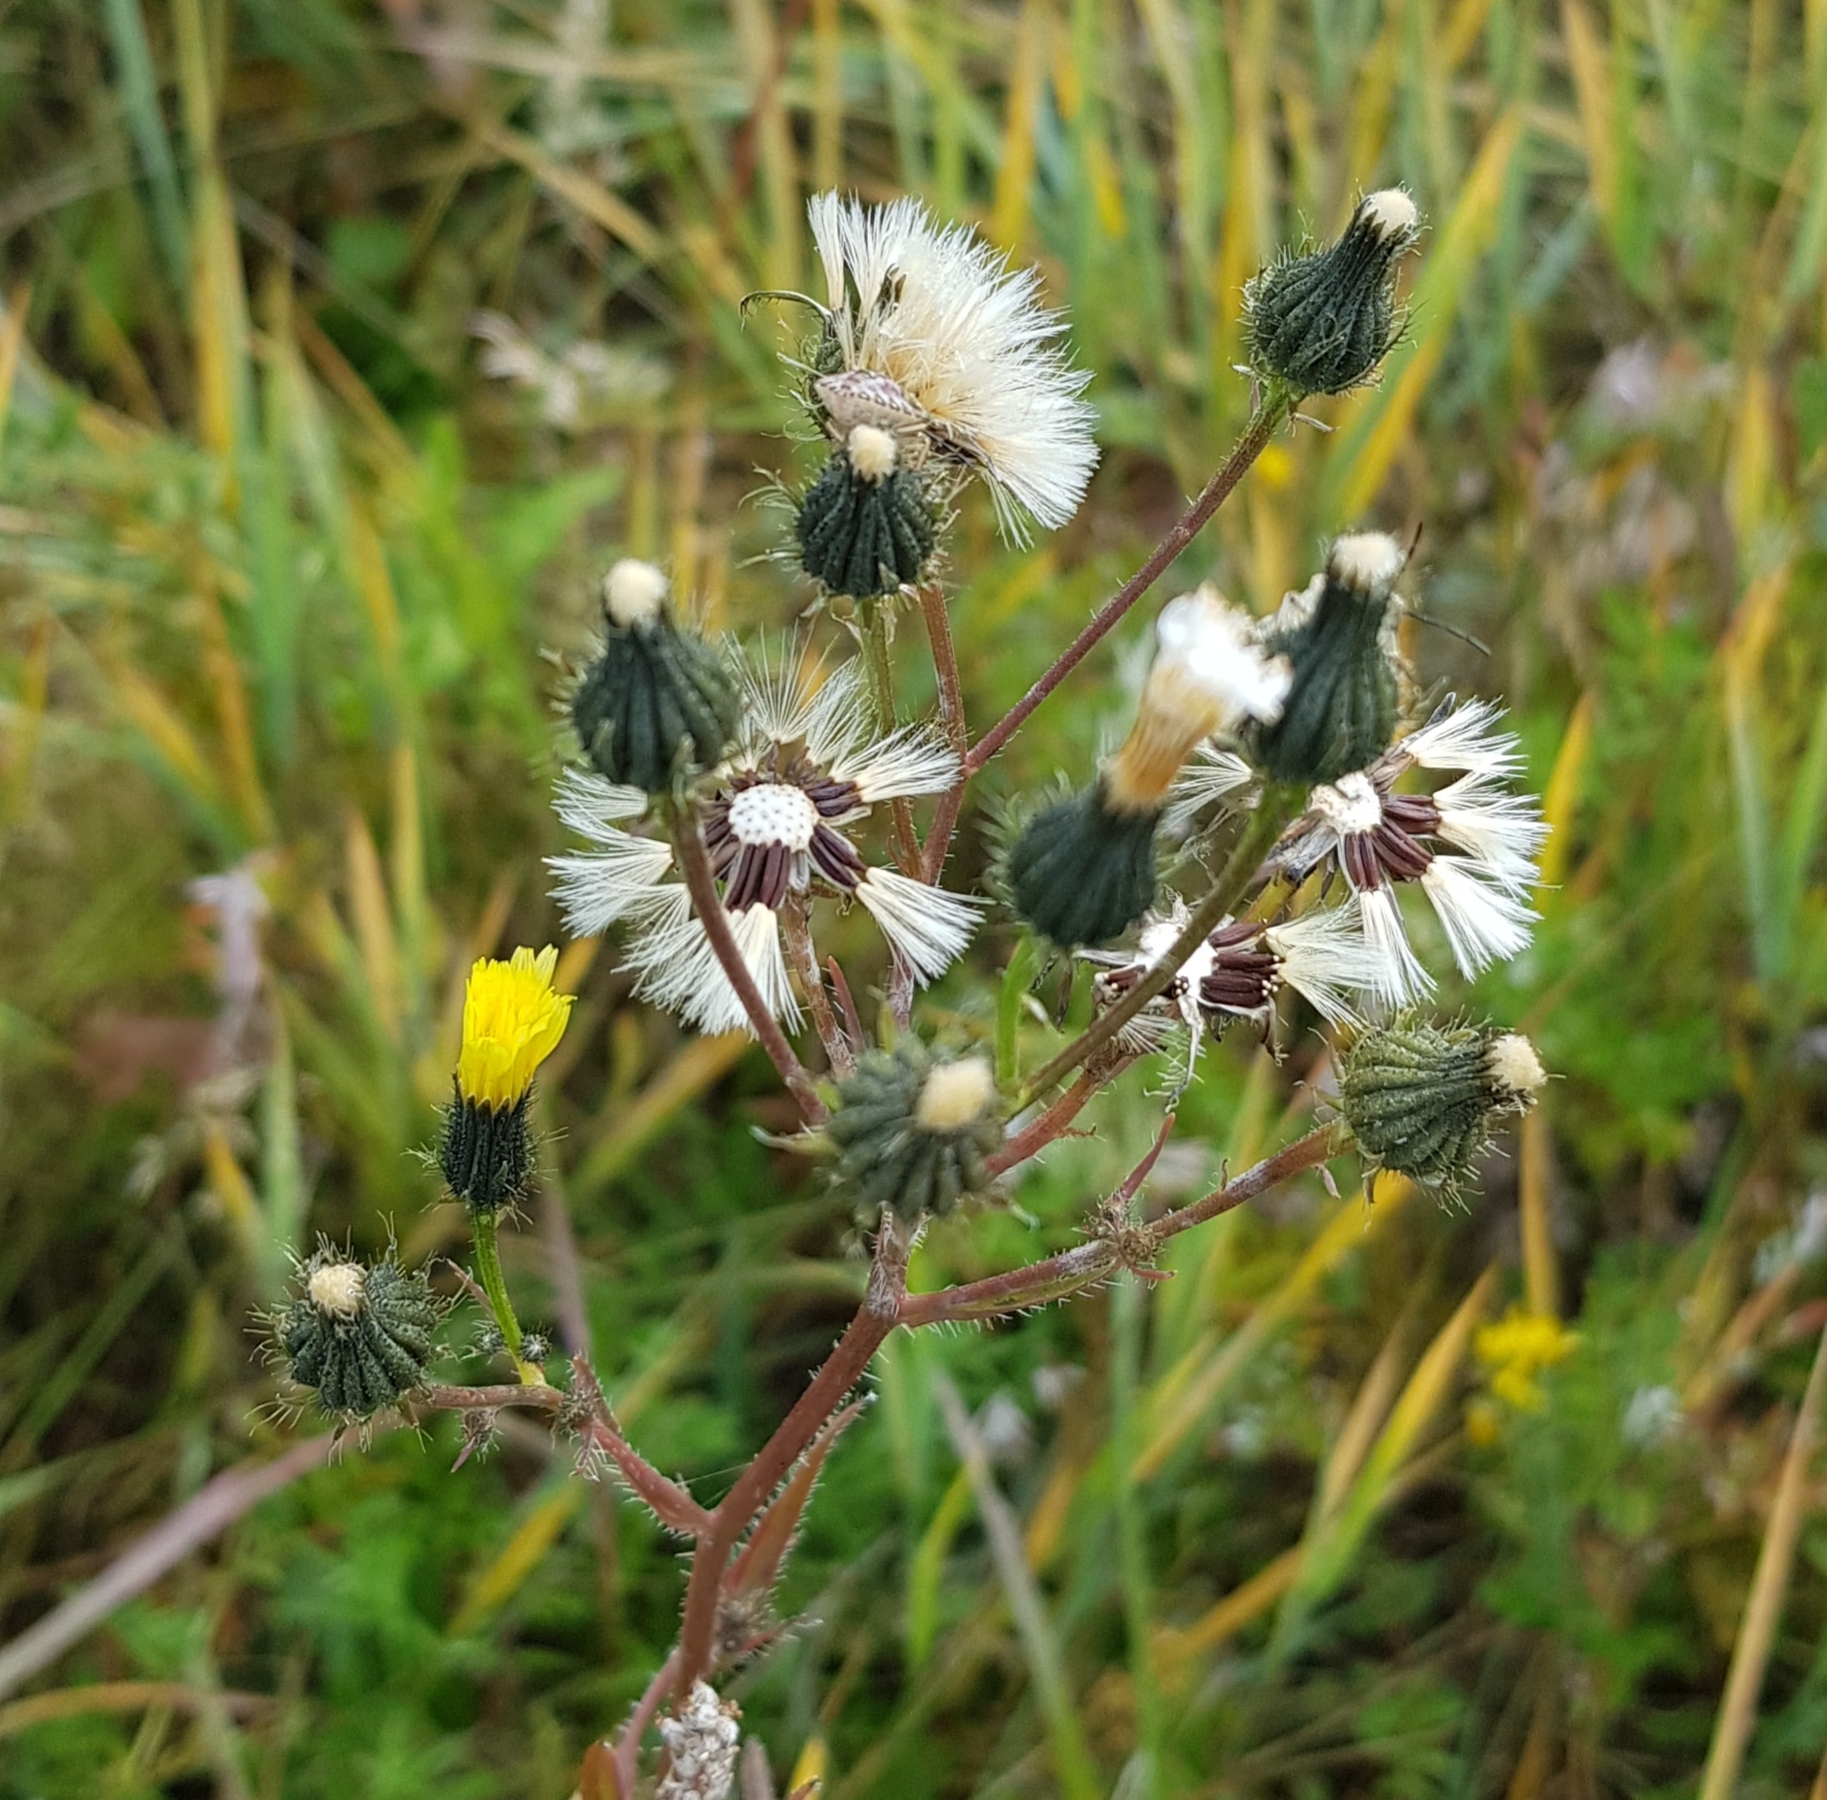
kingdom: Plantae
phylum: Tracheophyta
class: Magnoliopsida
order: Asterales
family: Asteraceae
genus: Pilosella
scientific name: Pilosella echioides
